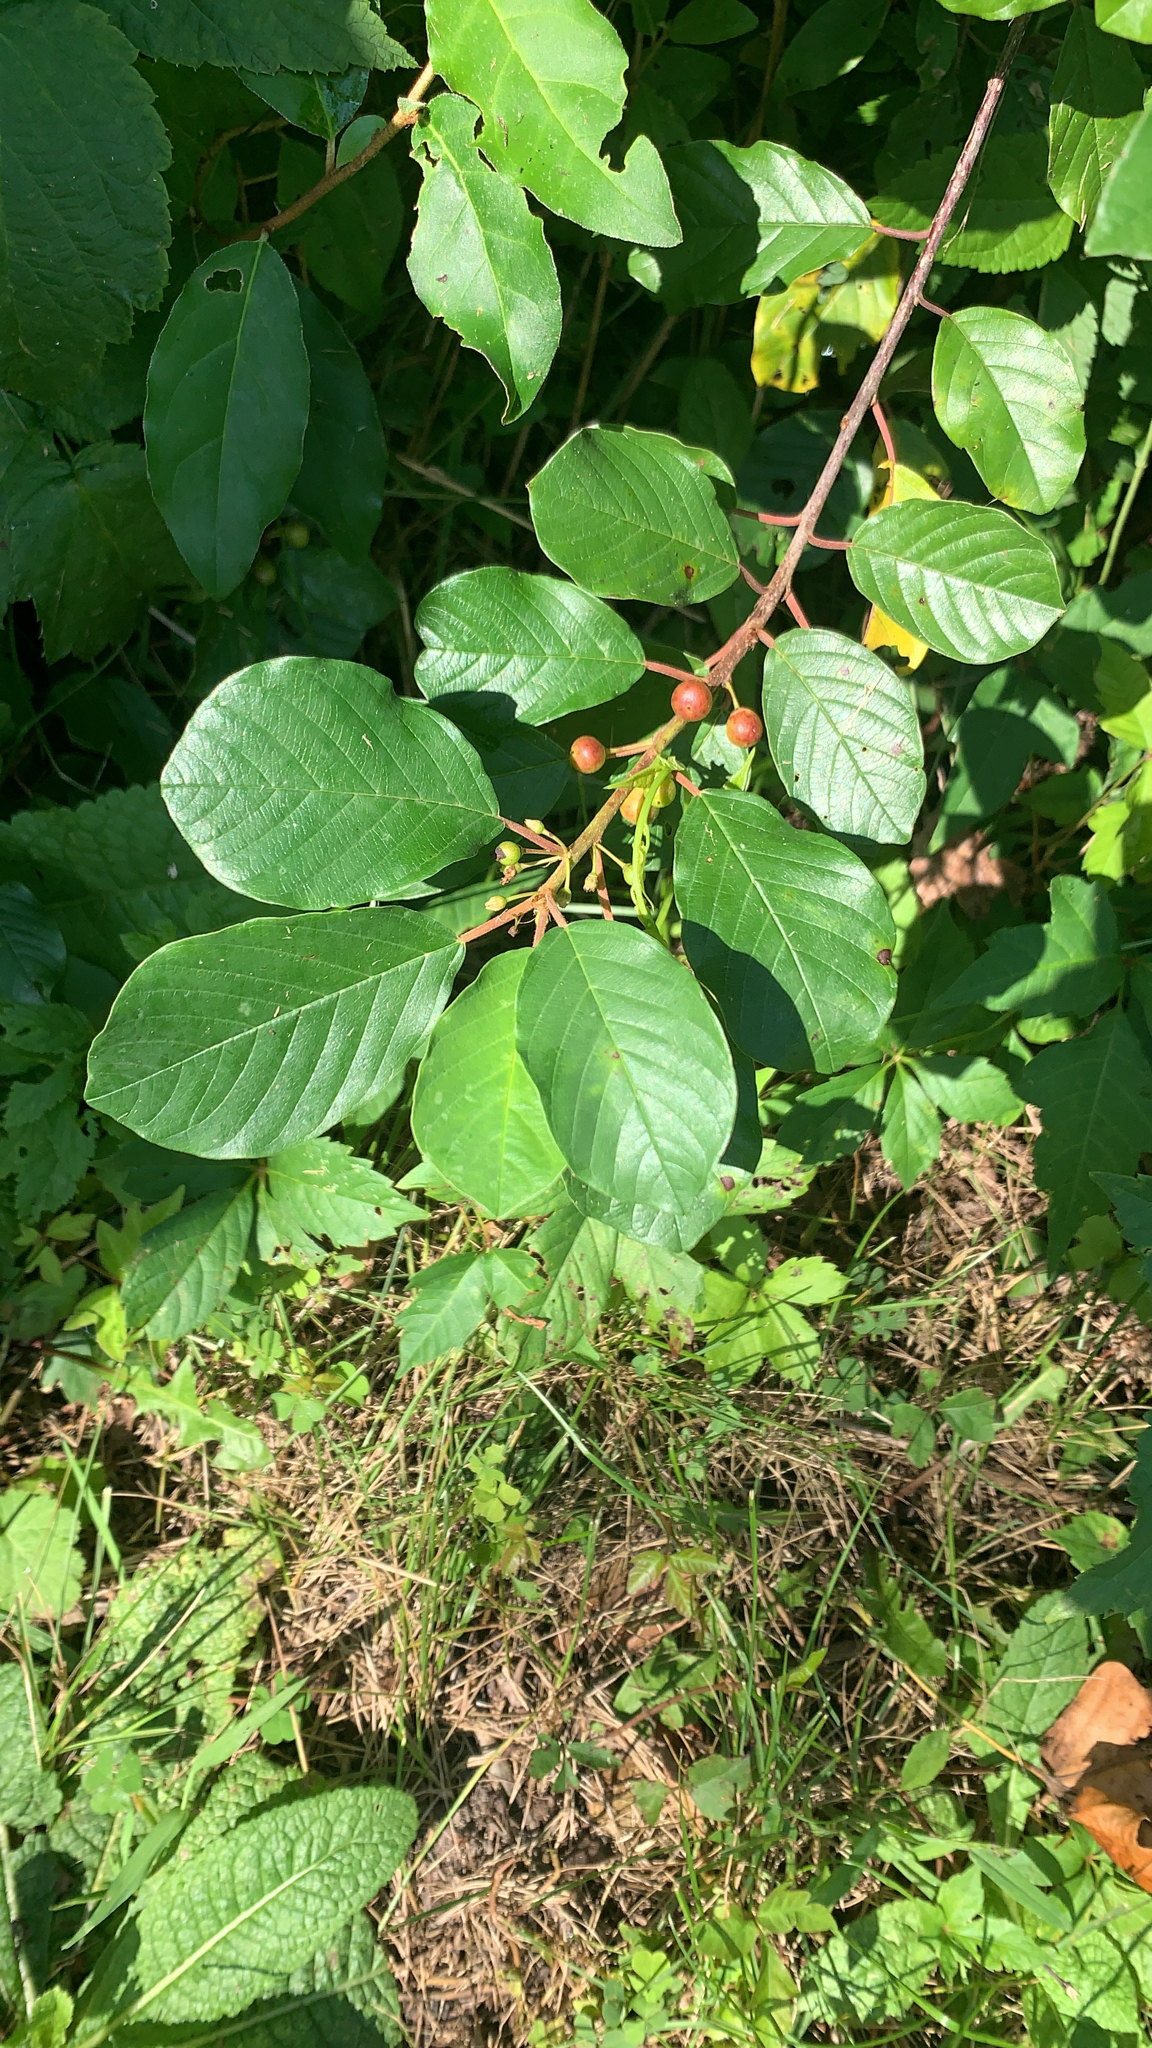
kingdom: Plantae
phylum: Tracheophyta
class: Magnoliopsida
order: Rosales
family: Rhamnaceae
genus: Frangula
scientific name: Frangula alnus
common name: Alder buckthorn
